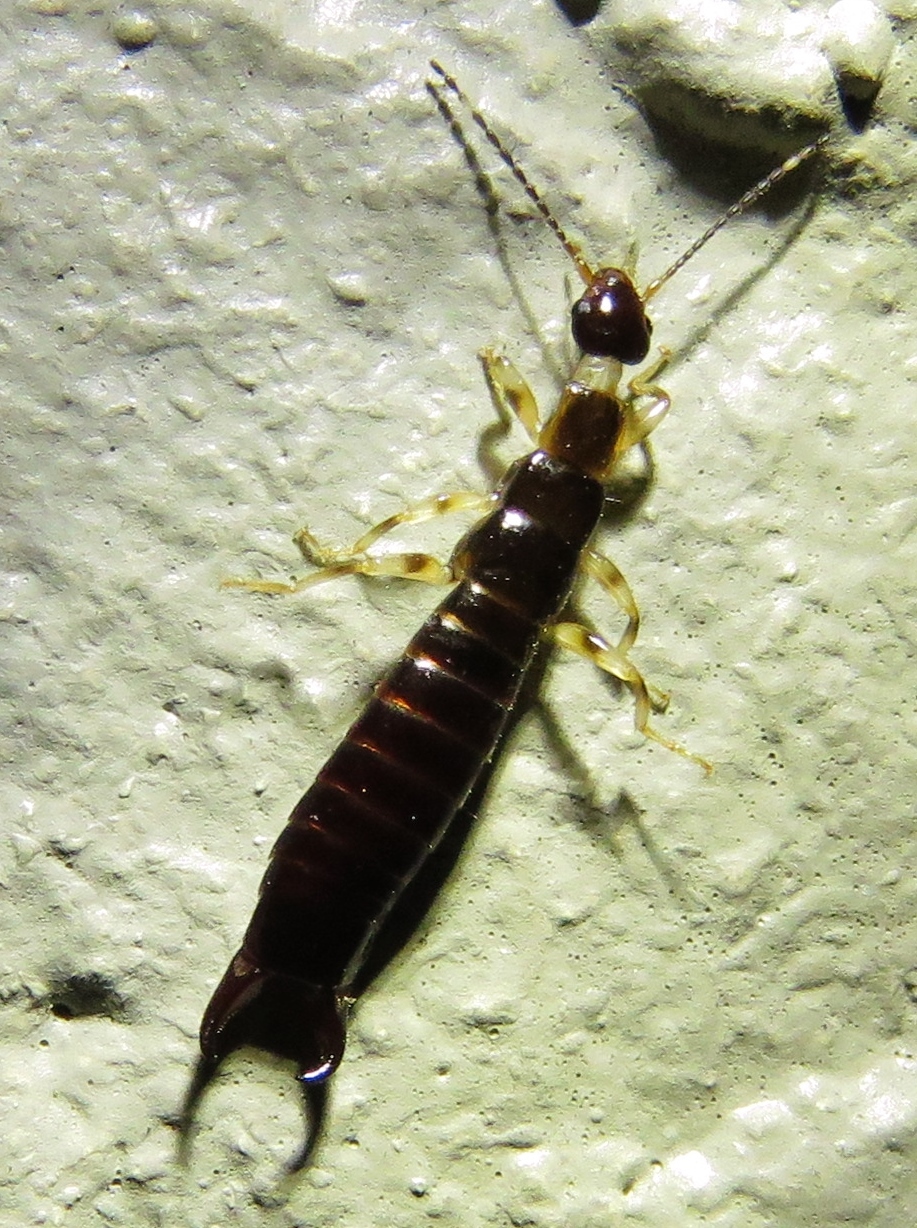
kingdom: Animalia
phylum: Arthropoda
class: Insecta
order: Dermaptera
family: Anisolabididae
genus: Euborellia
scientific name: Euborellia annulipes
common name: Ringlegged earwig
